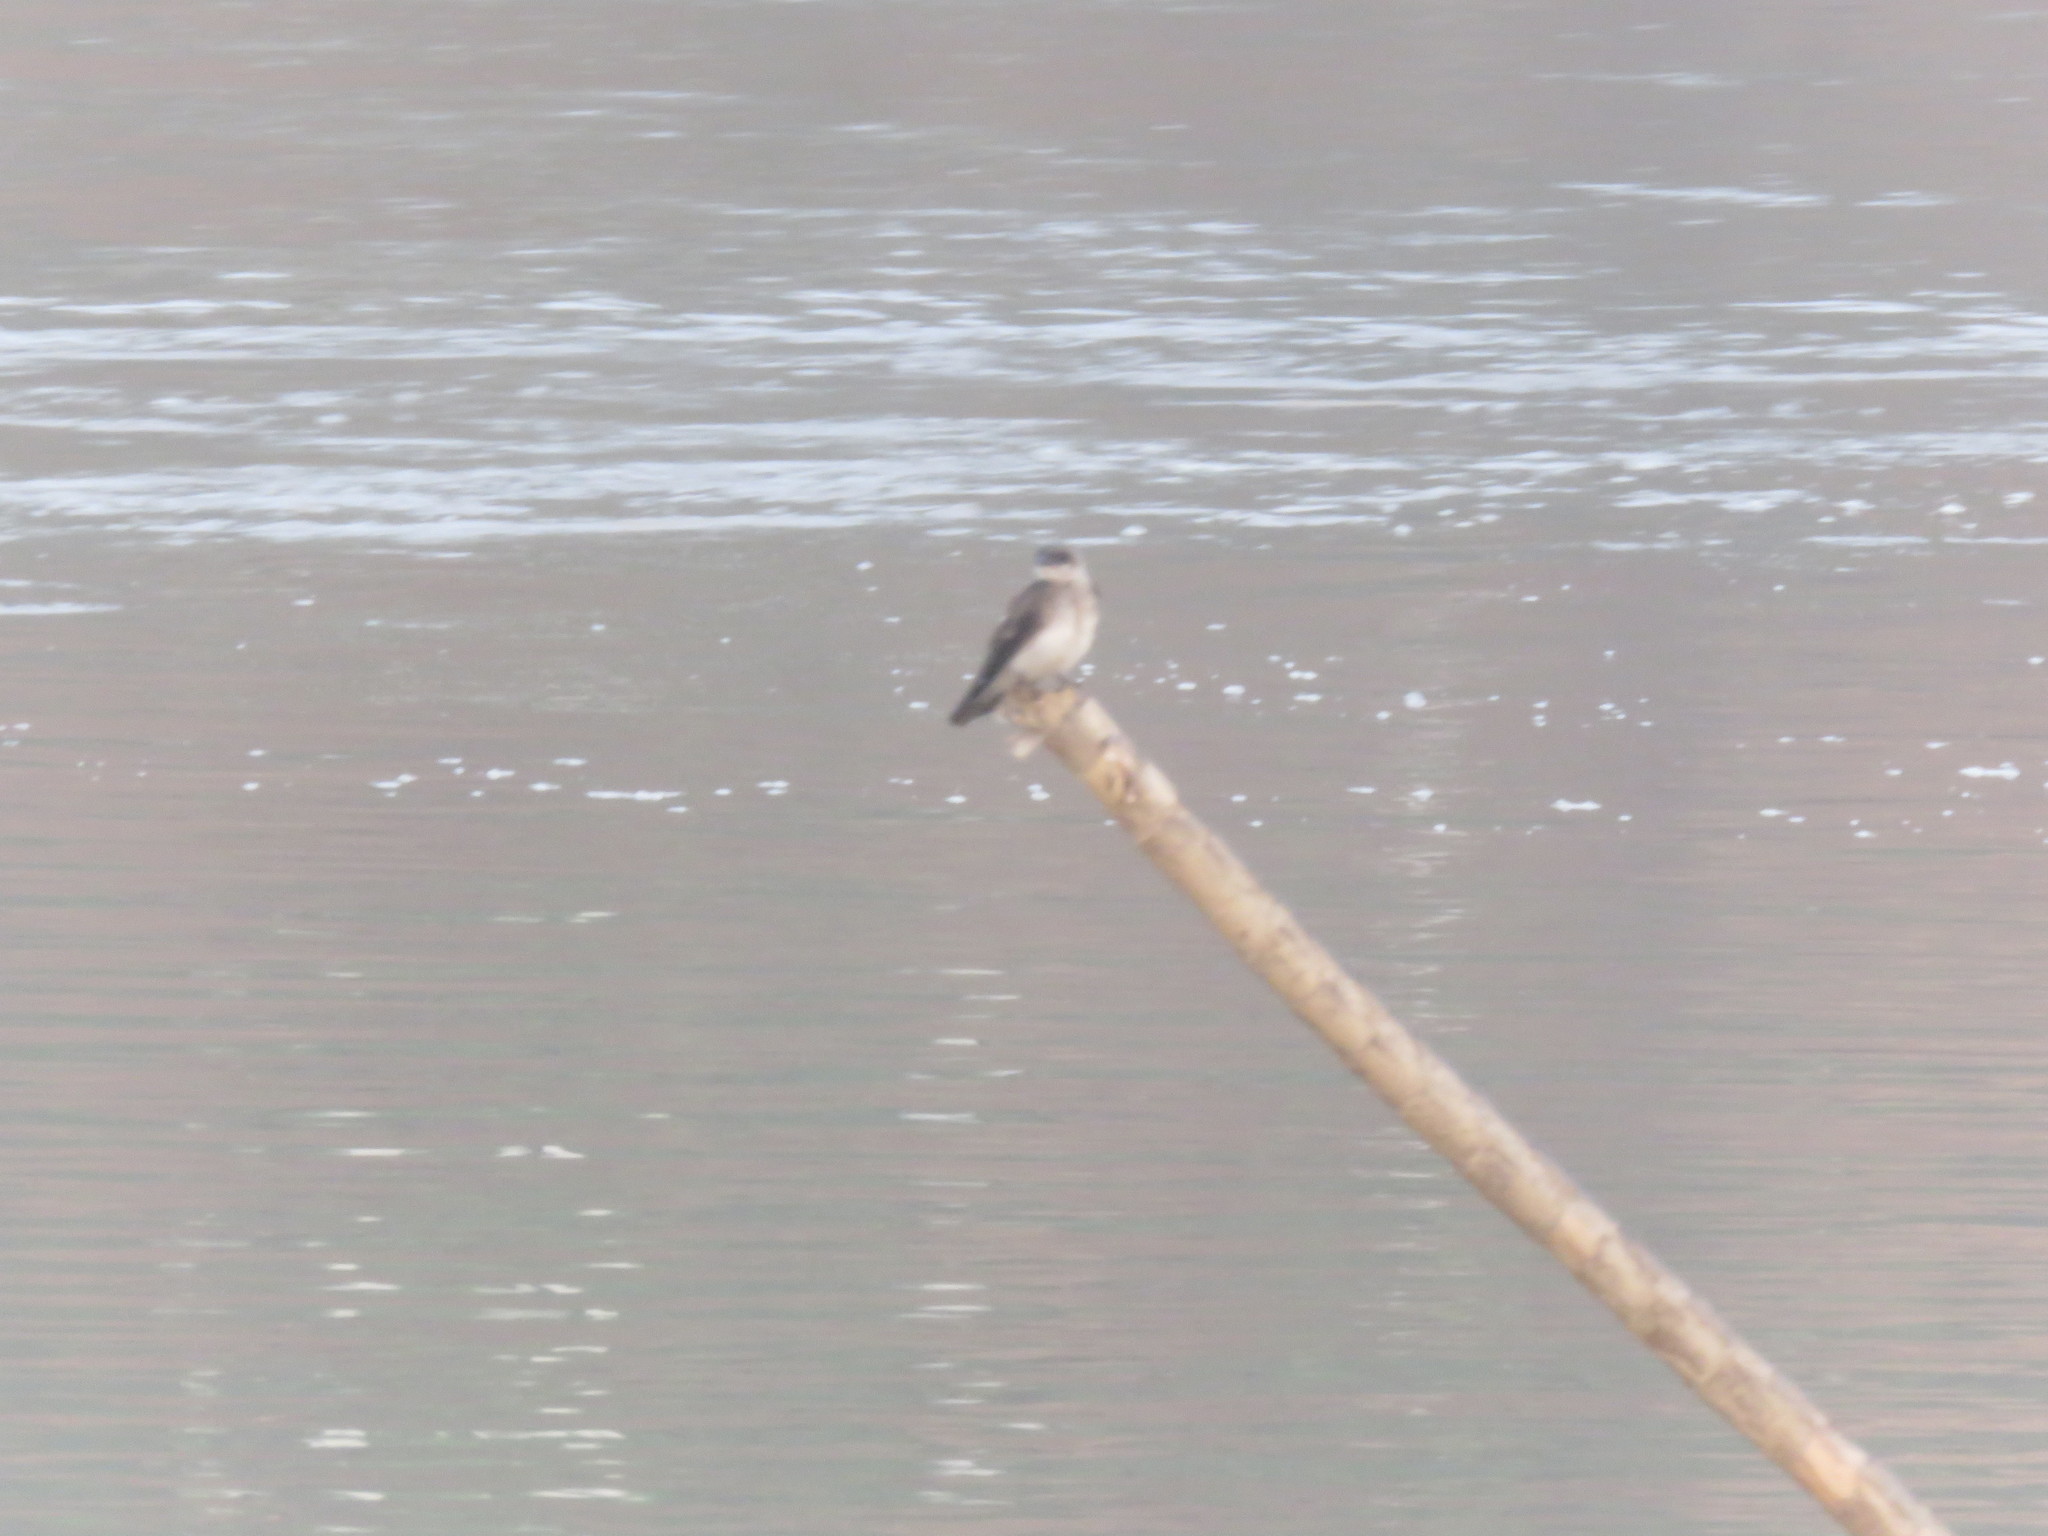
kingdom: Animalia
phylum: Chordata
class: Aves
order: Passeriformes
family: Hirundinidae
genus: Progne
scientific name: Progne tapera
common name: Brown-chested martin
